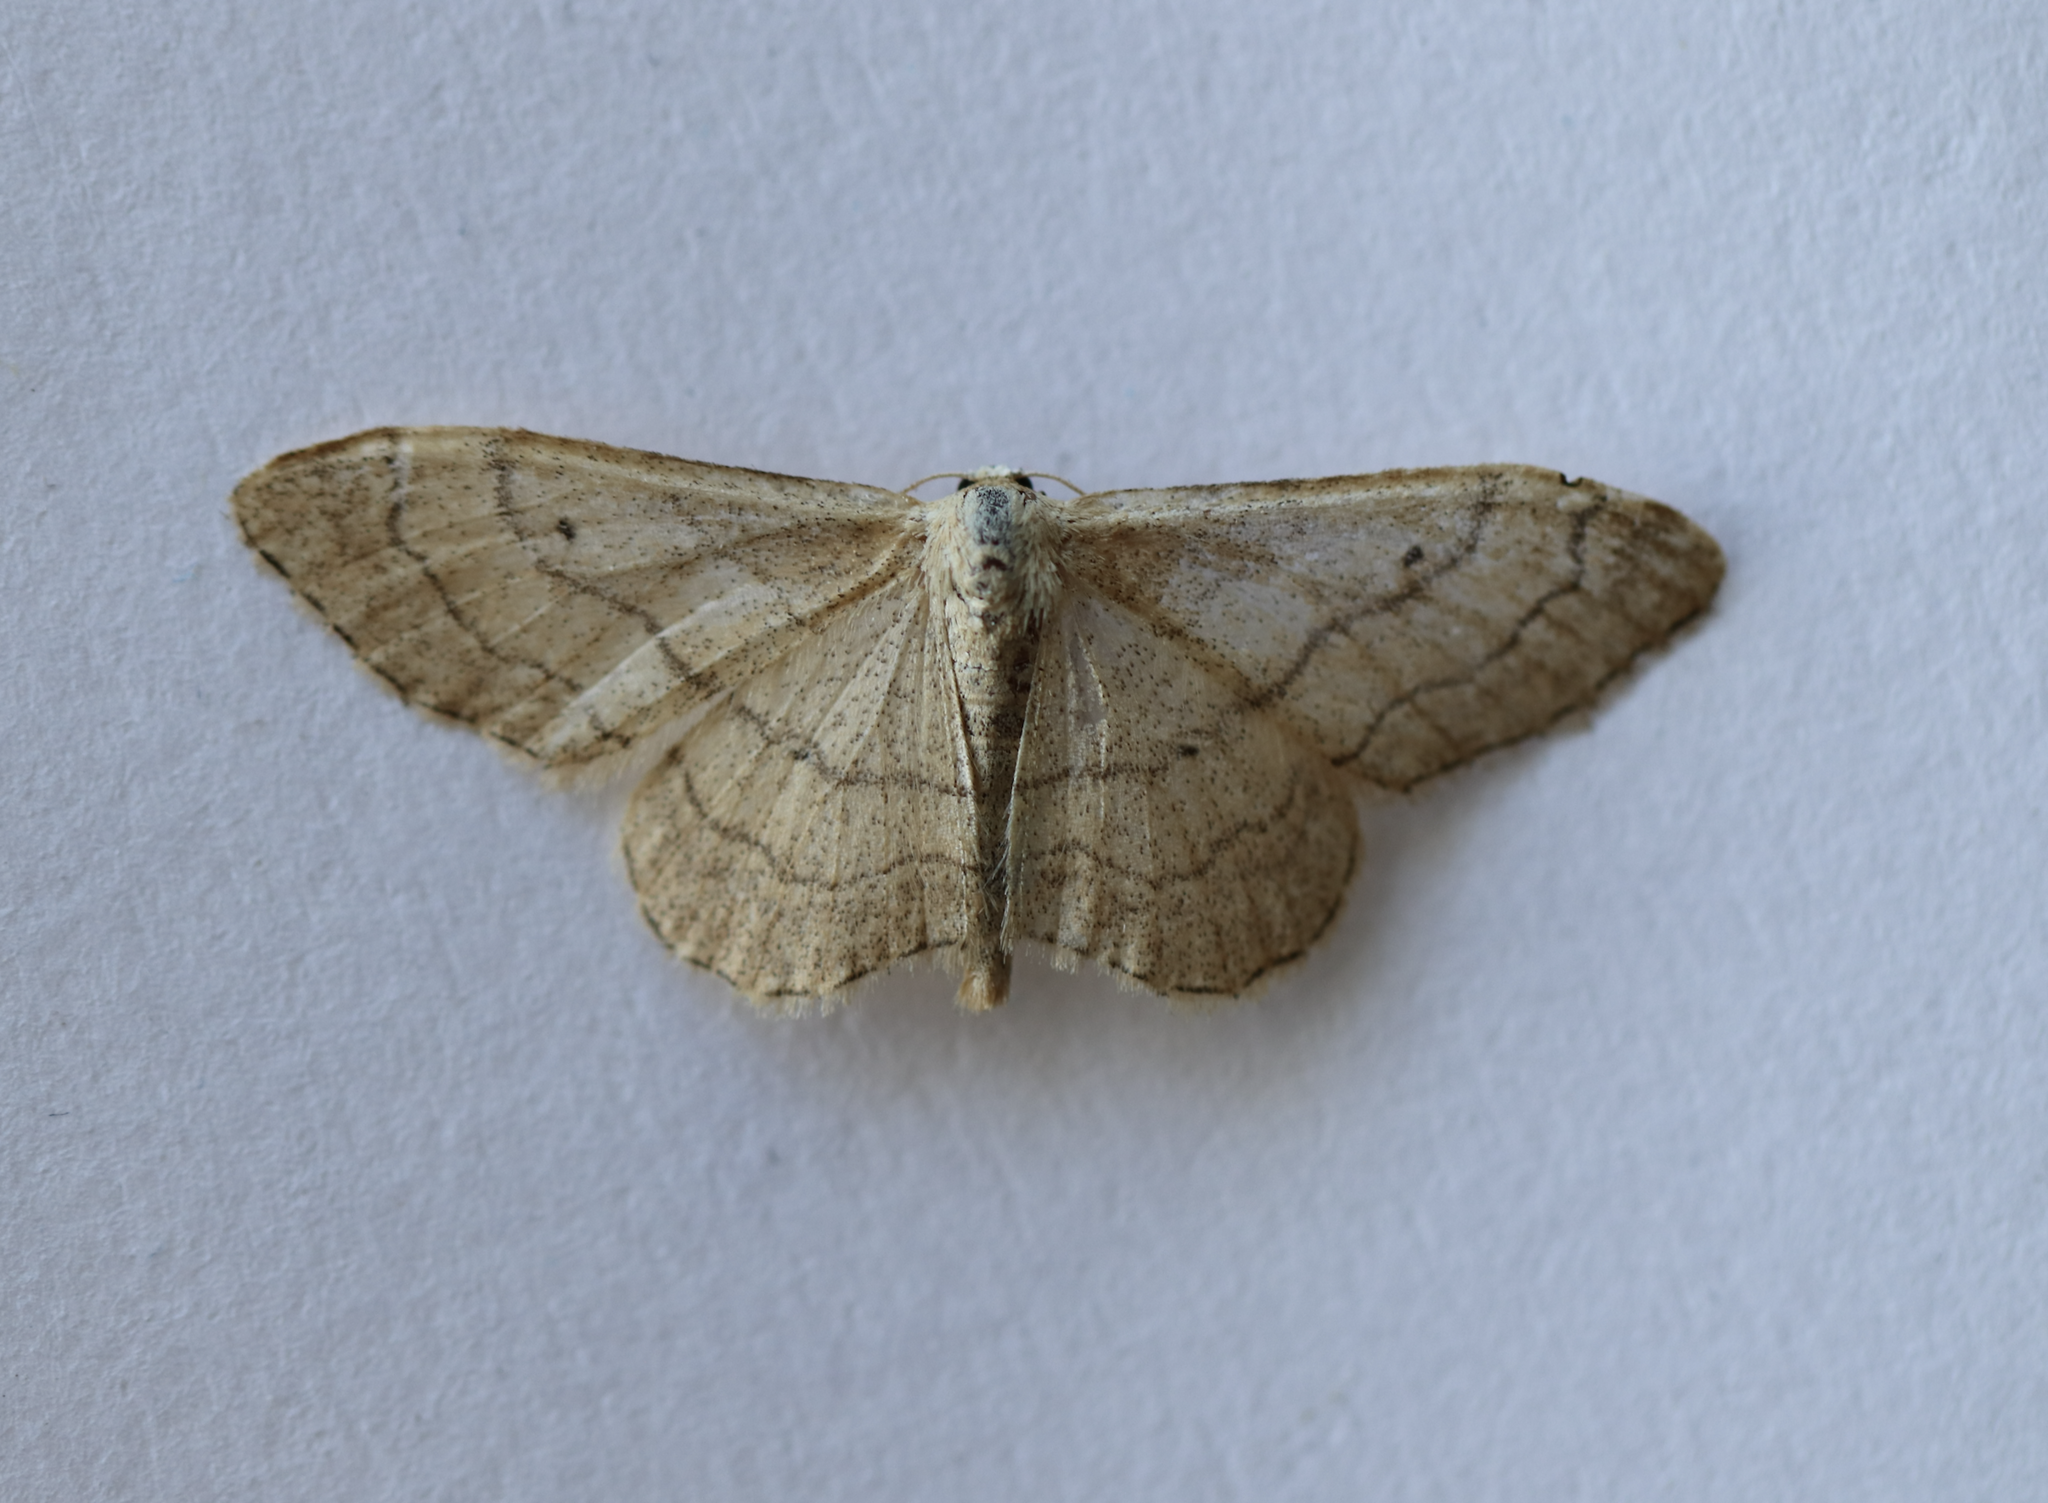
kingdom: Animalia
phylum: Arthropoda
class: Insecta
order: Lepidoptera
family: Geometridae
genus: Idaea
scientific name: Idaea aversata
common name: Riband wave
